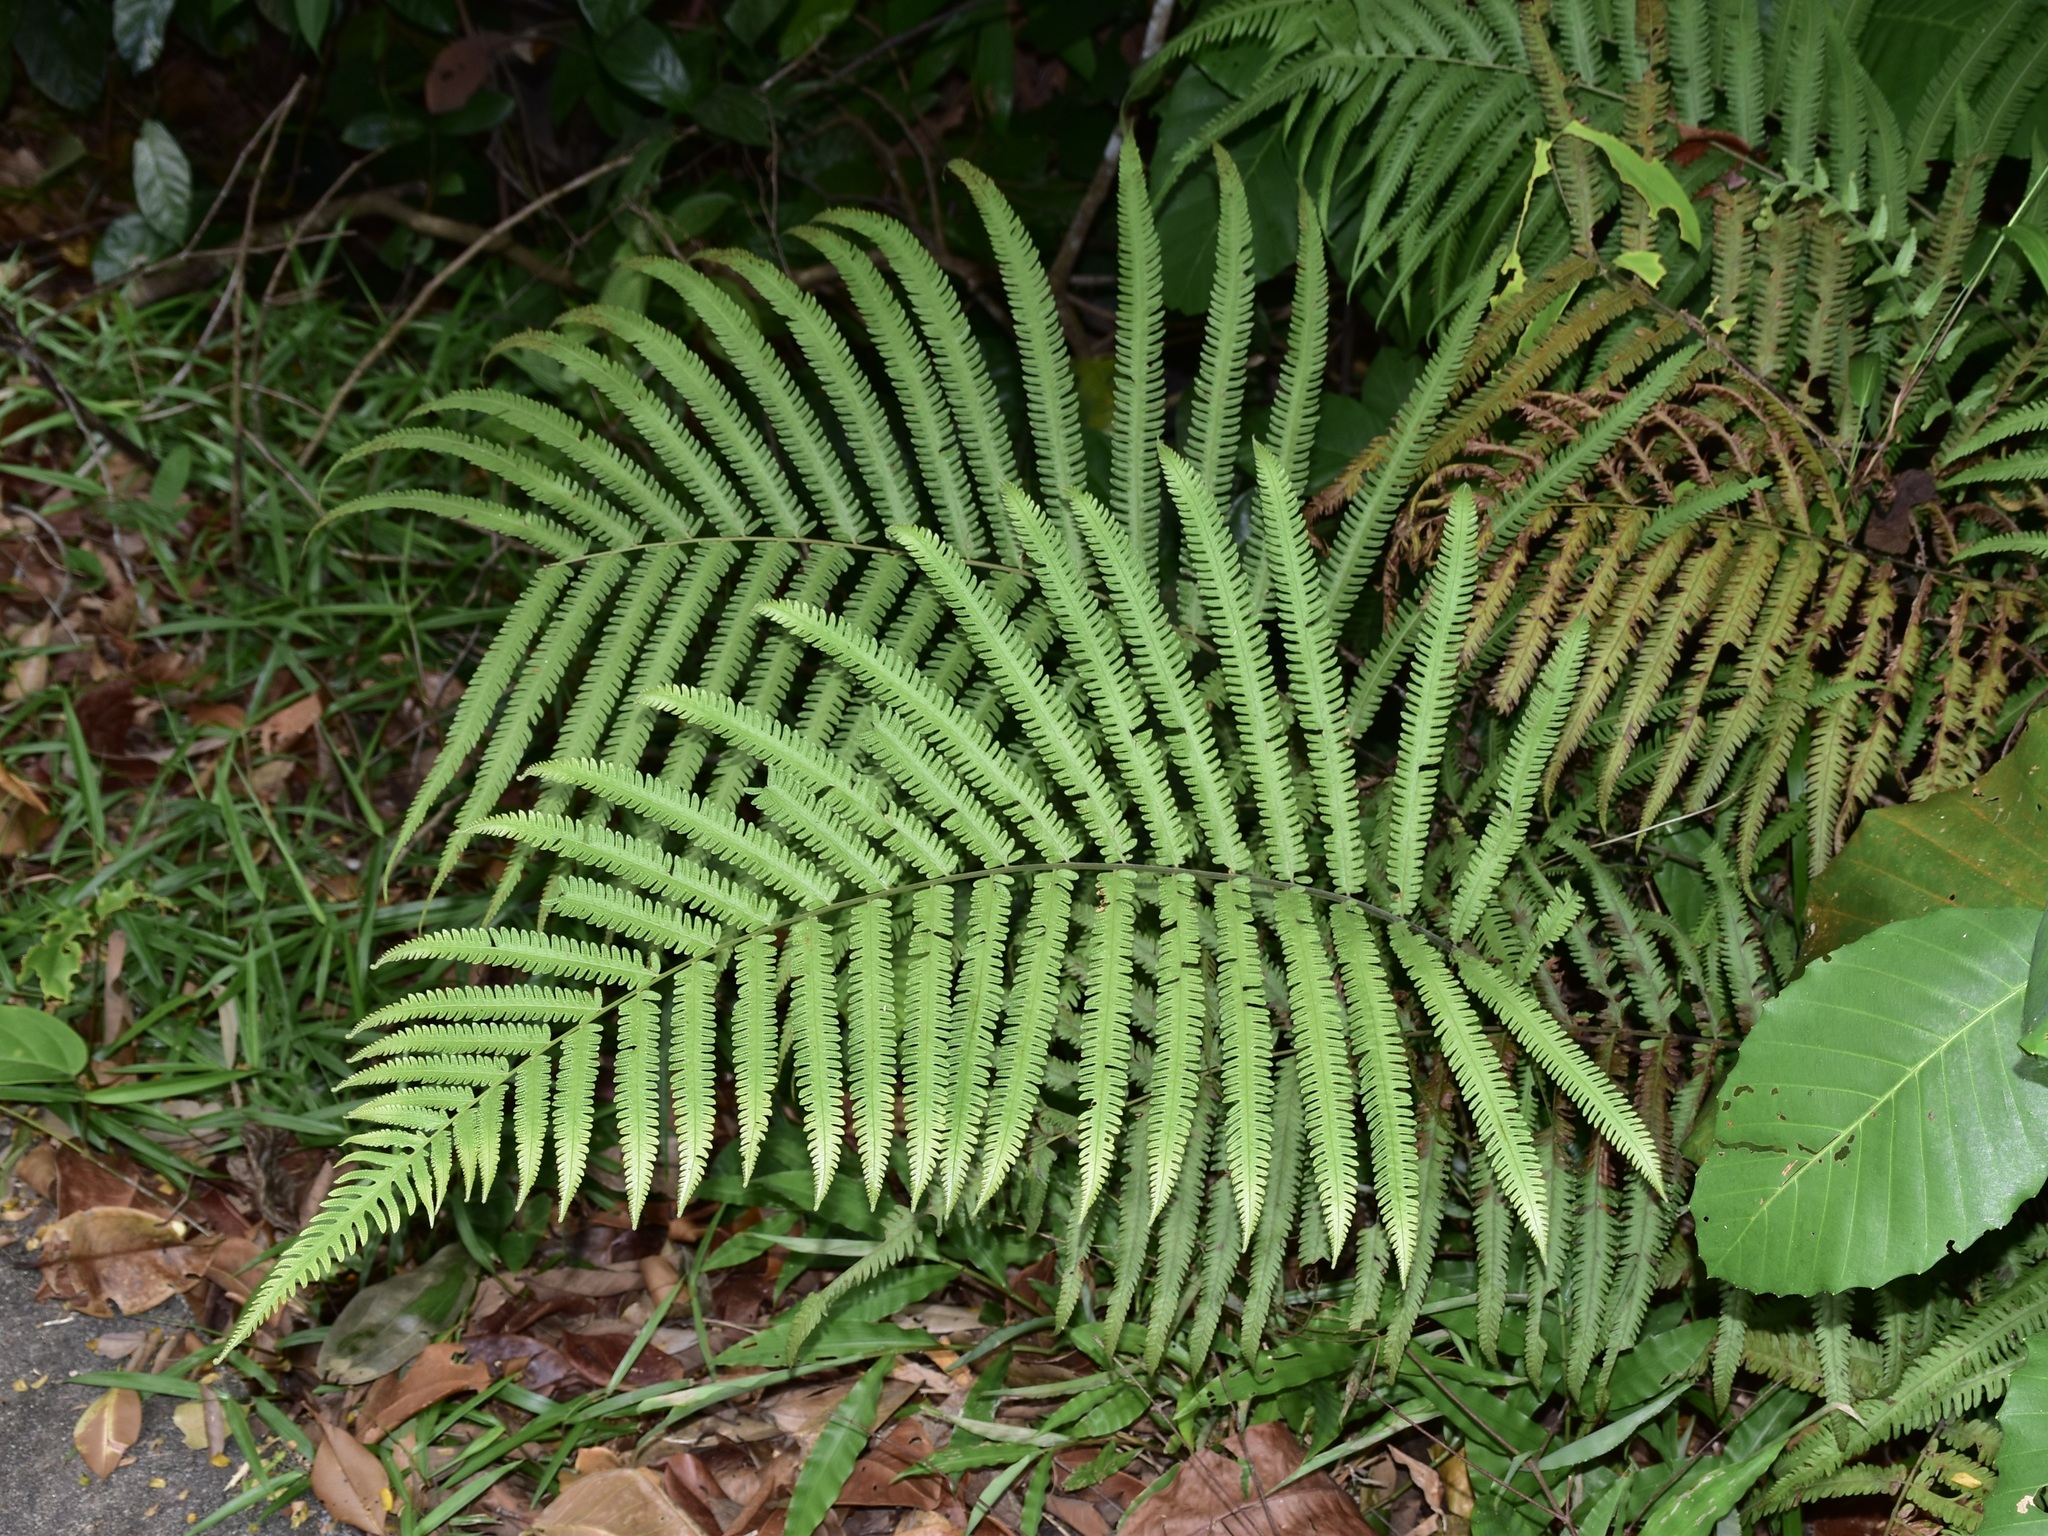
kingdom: Plantae
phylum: Tracheophyta
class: Polypodiopsida
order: Polypodiales
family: Thelypteridaceae
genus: Amblovenatum
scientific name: Amblovenatum opulentum
